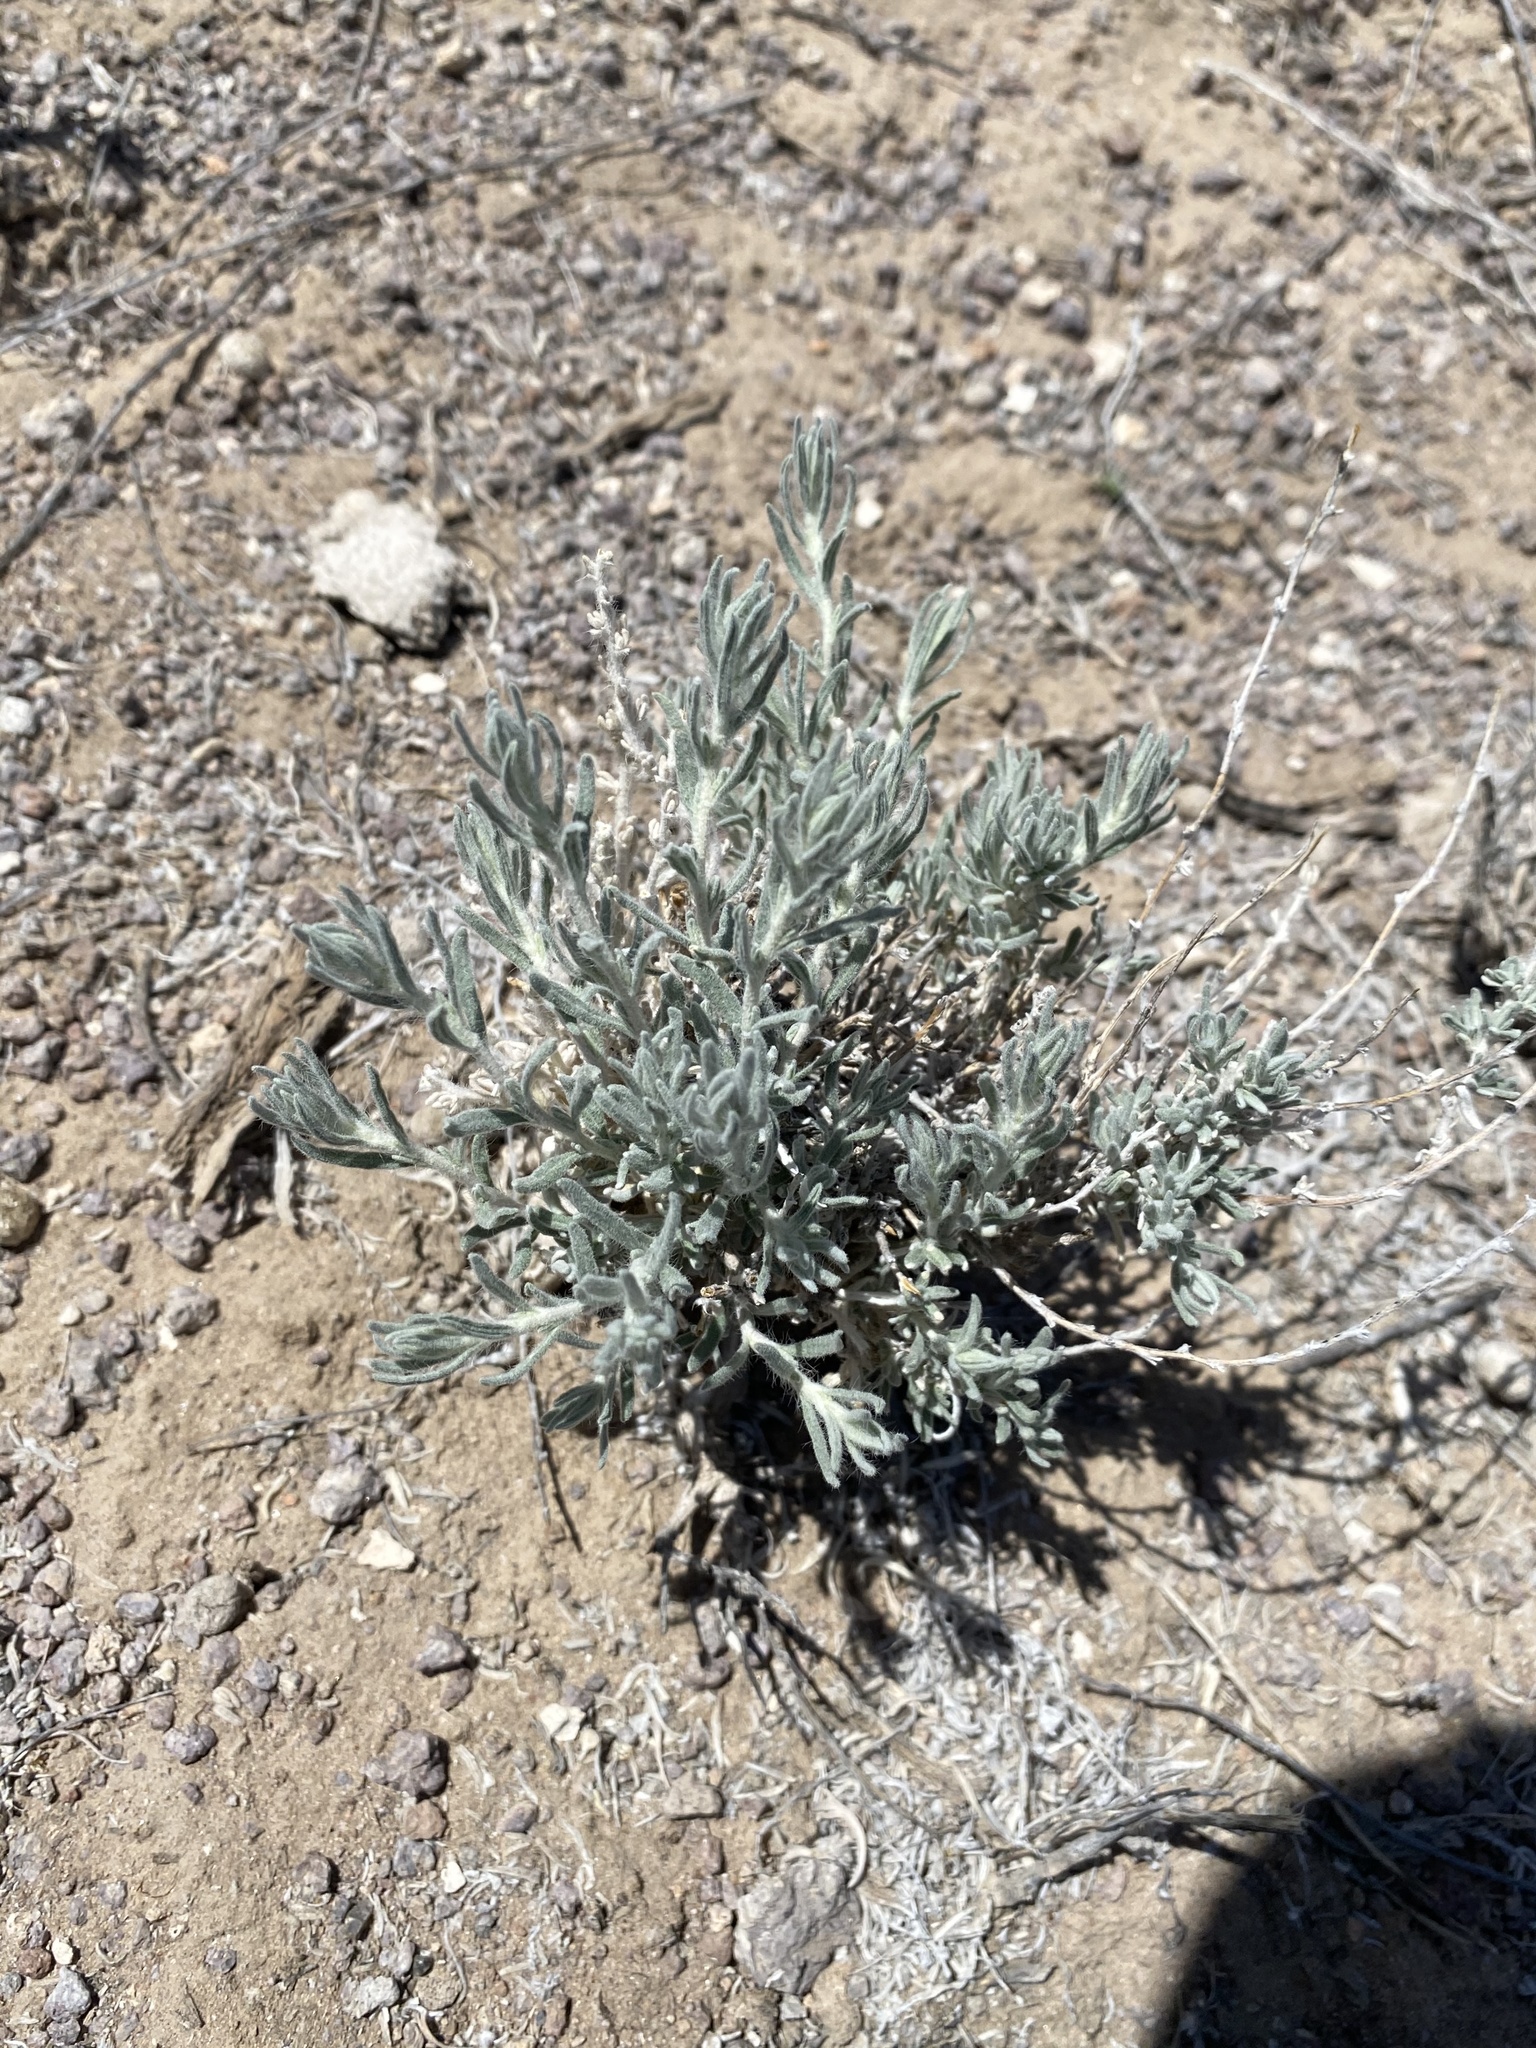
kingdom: Plantae
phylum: Tracheophyta
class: Magnoliopsida
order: Caryophyllales
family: Amaranthaceae
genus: Krascheninnikovia
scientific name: Krascheninnikovia lanata
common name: Winterfat
